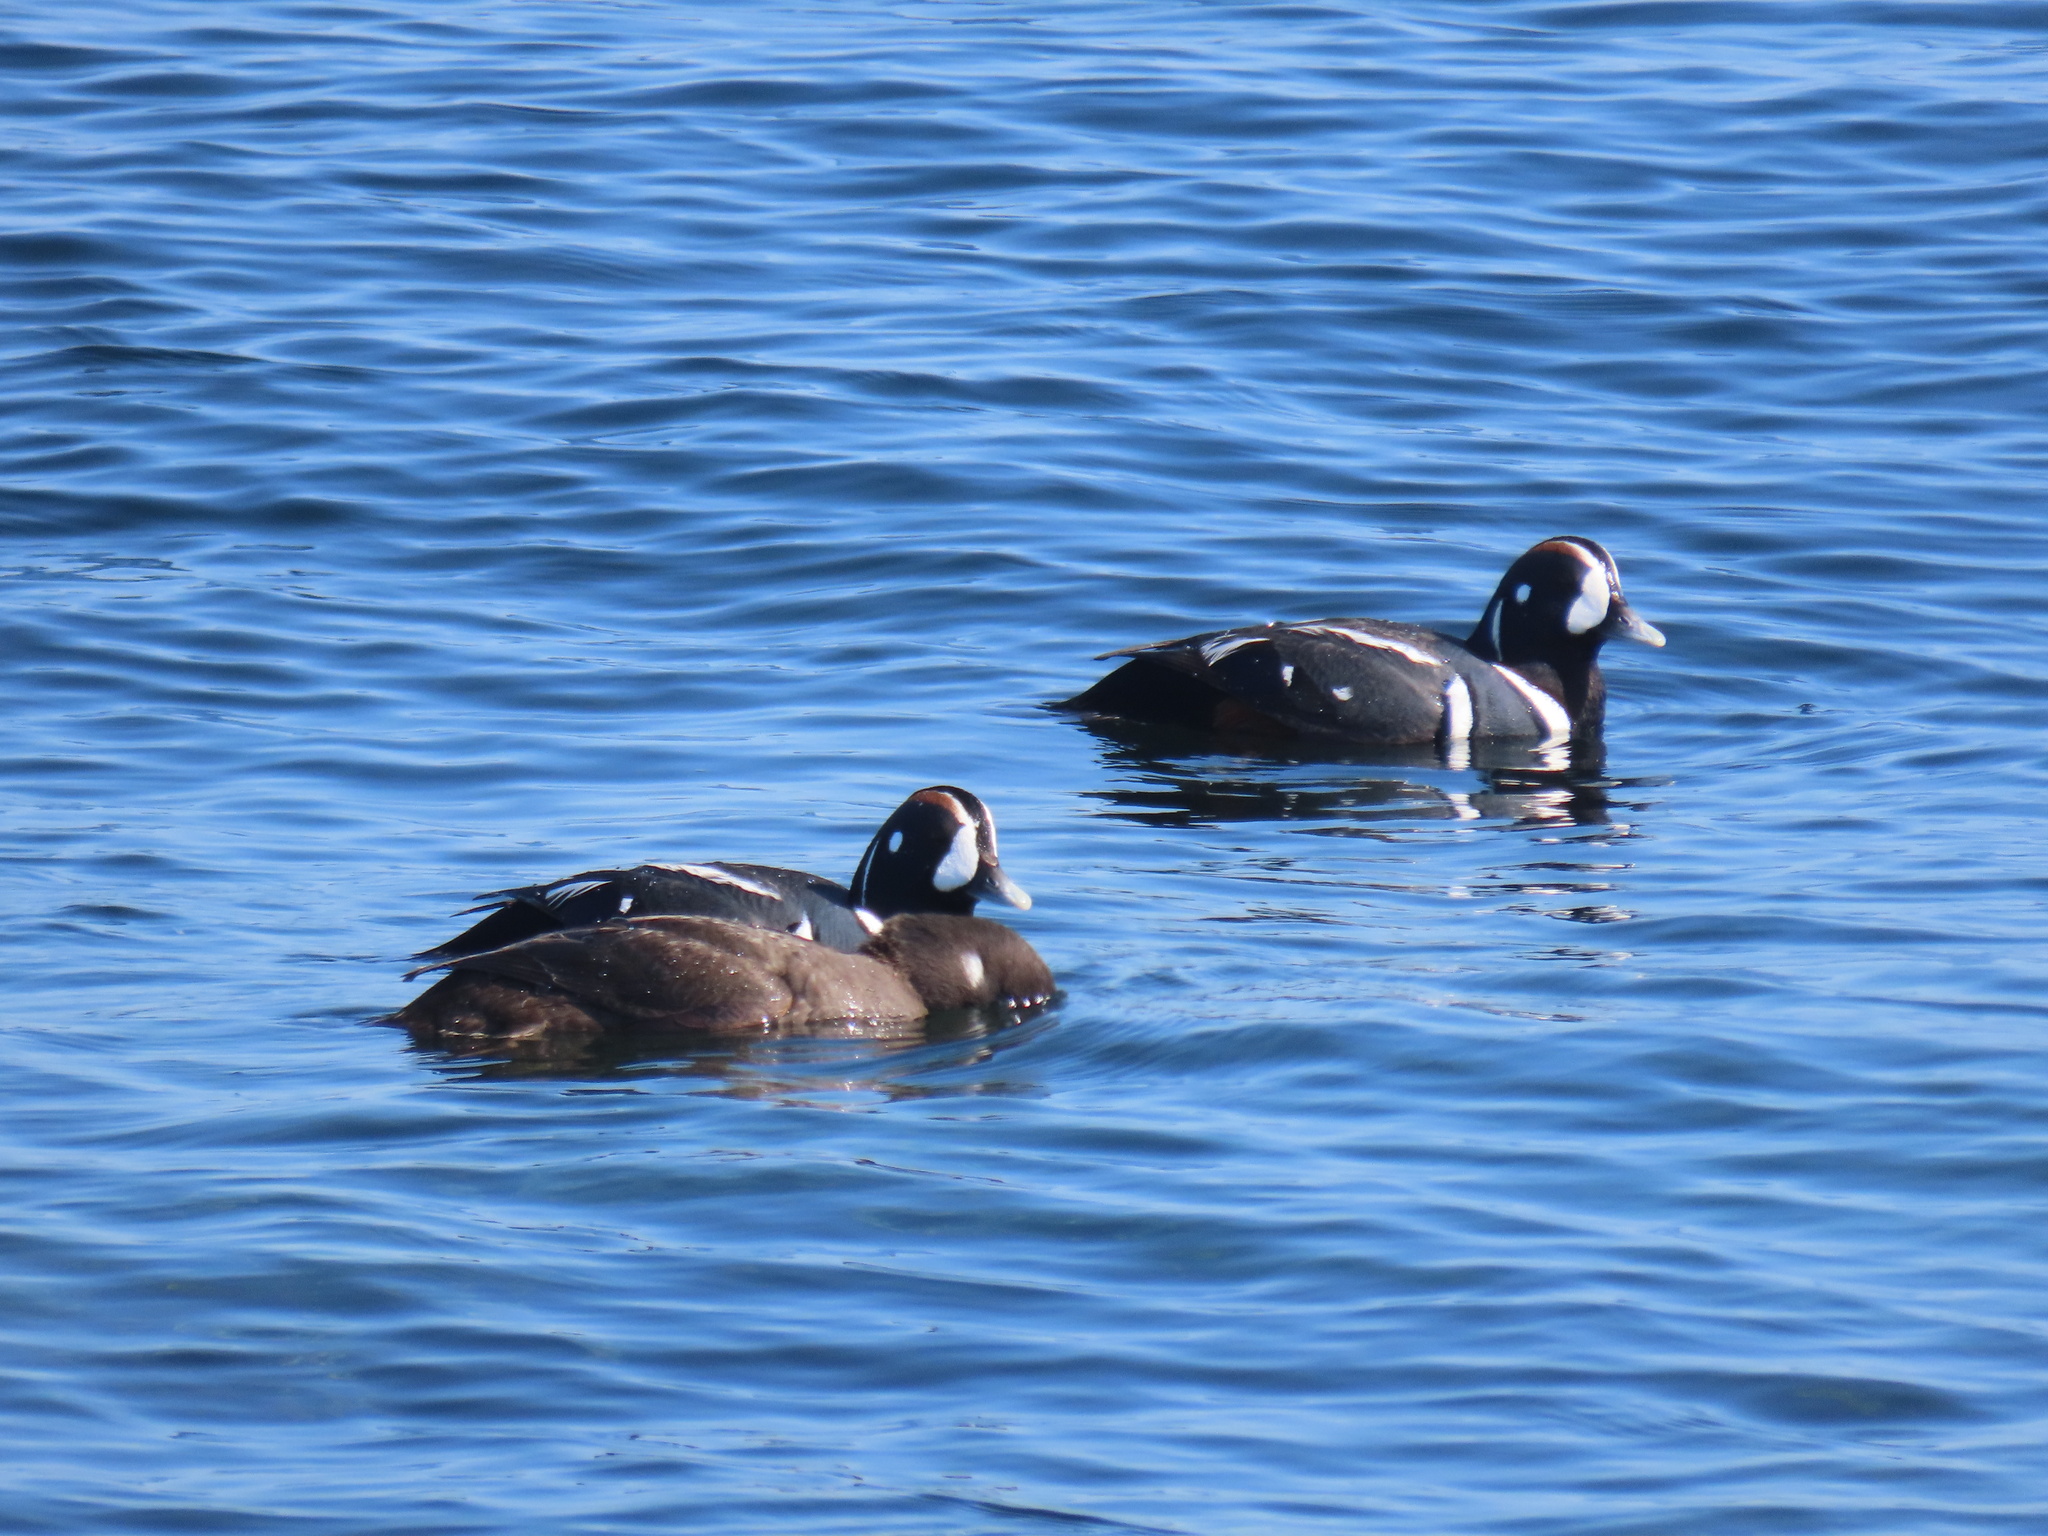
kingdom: Animalia
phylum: Chordata
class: Aves
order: Anseriformes
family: Anatidae
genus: Histrionicus
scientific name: Histrionicus histrionicus
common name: Harlequin duck
